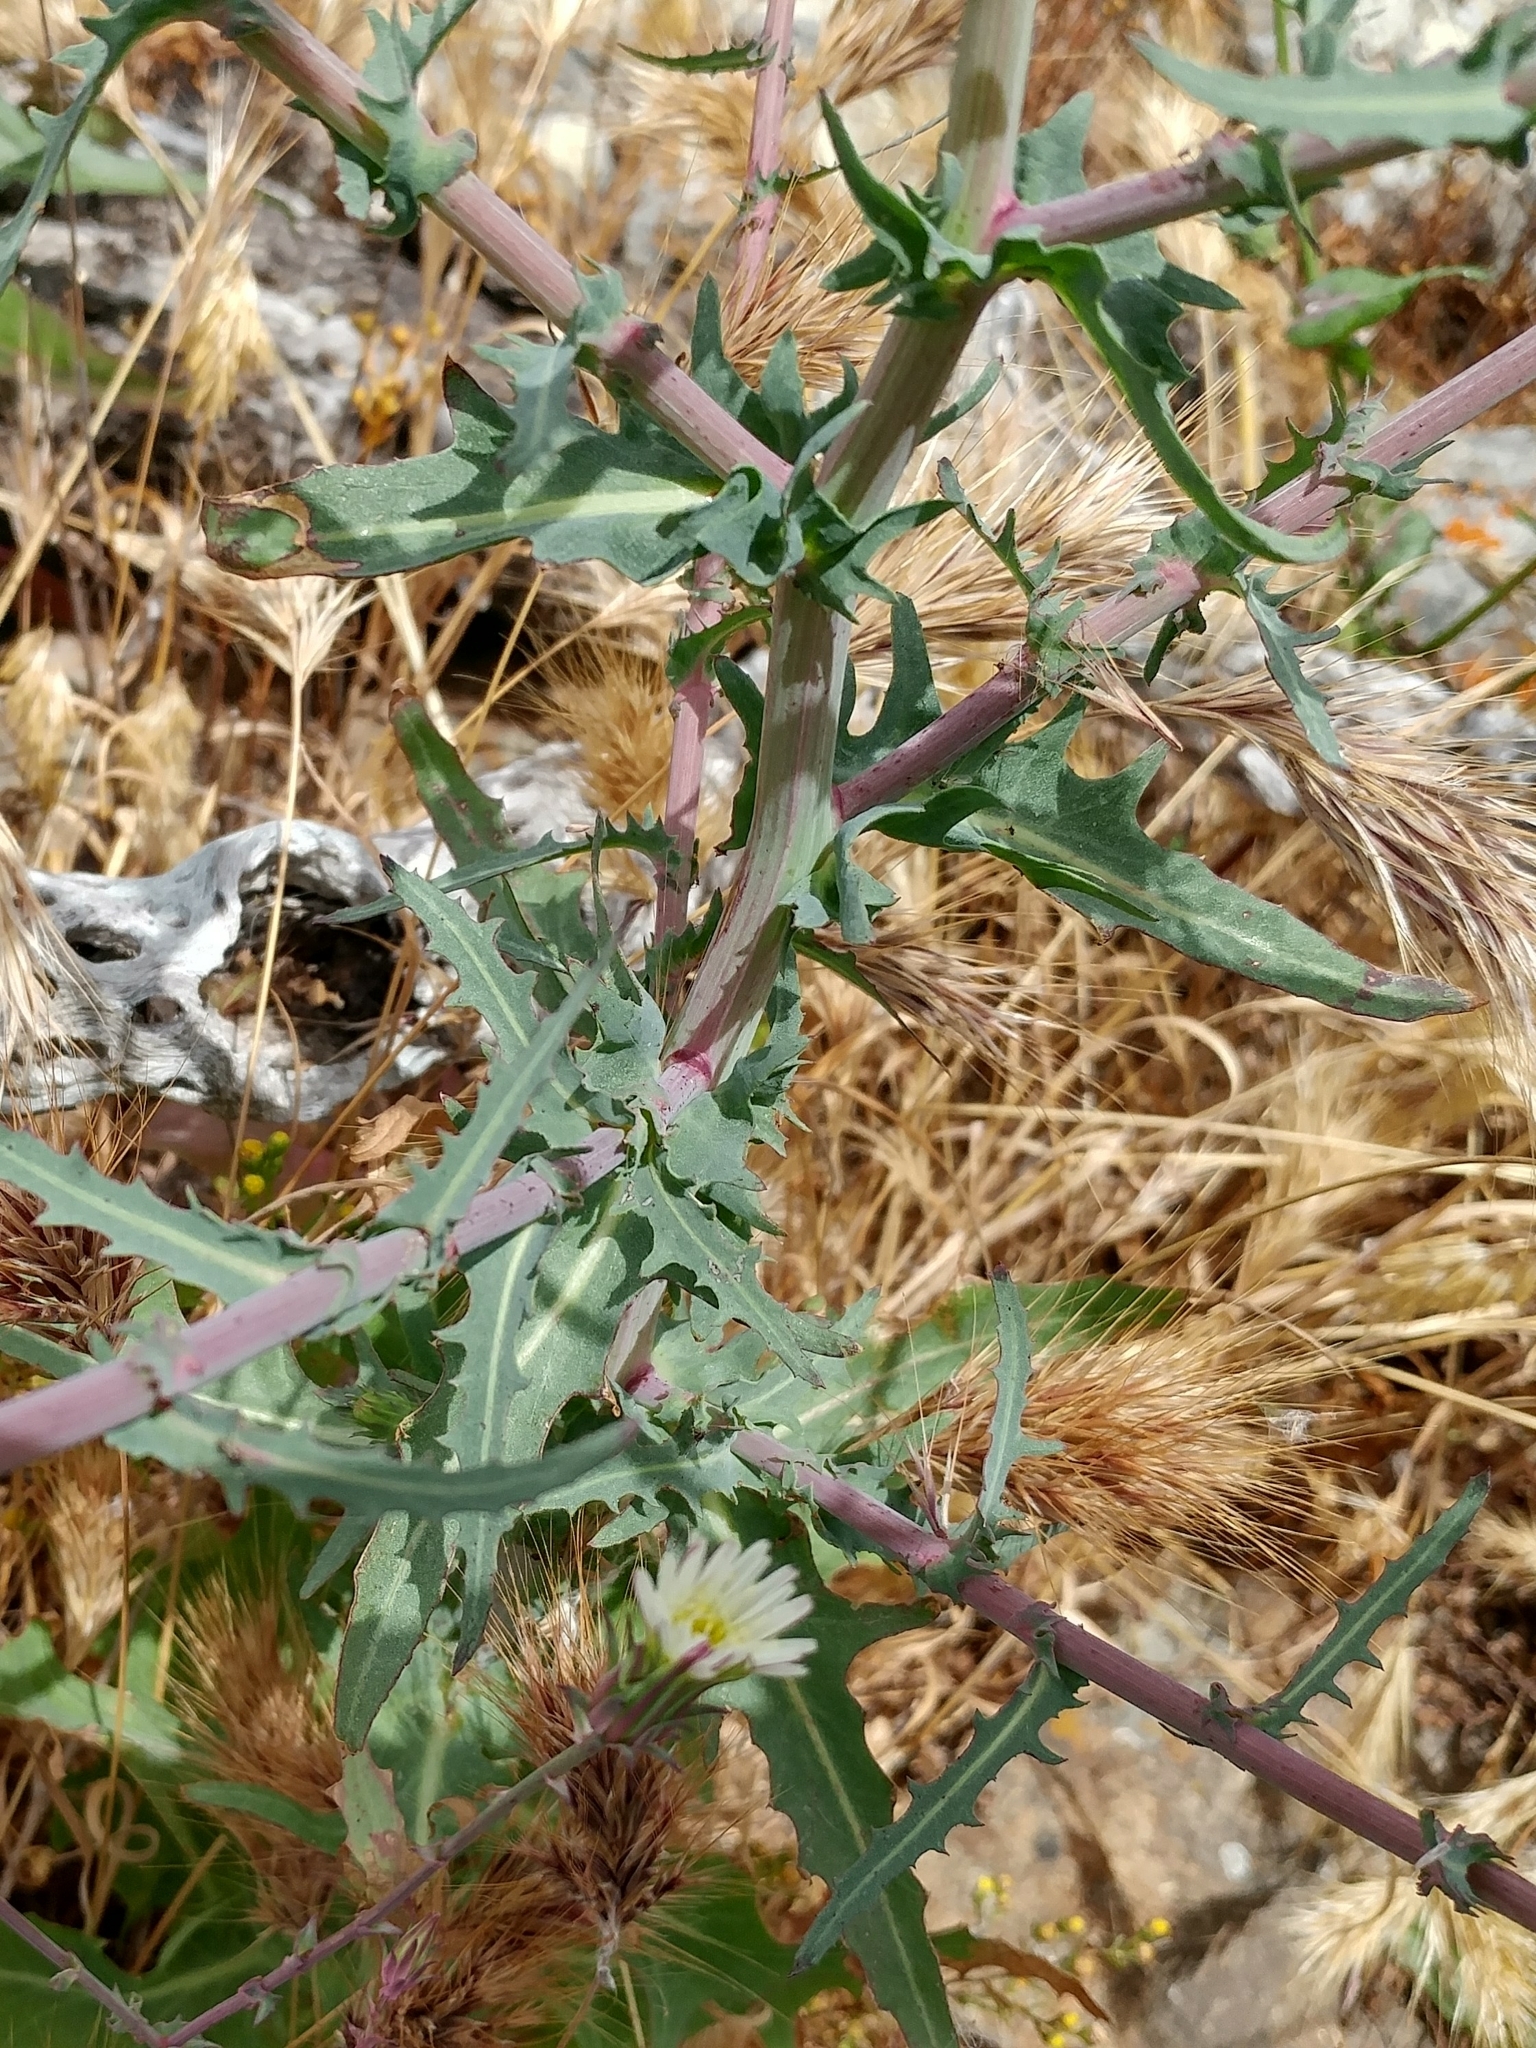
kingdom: Plantae
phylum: Tracheophyta
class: Magnoliopsida
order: Asterales
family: Asteraceae
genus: Rafinesquia
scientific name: Rafinesquia californica
